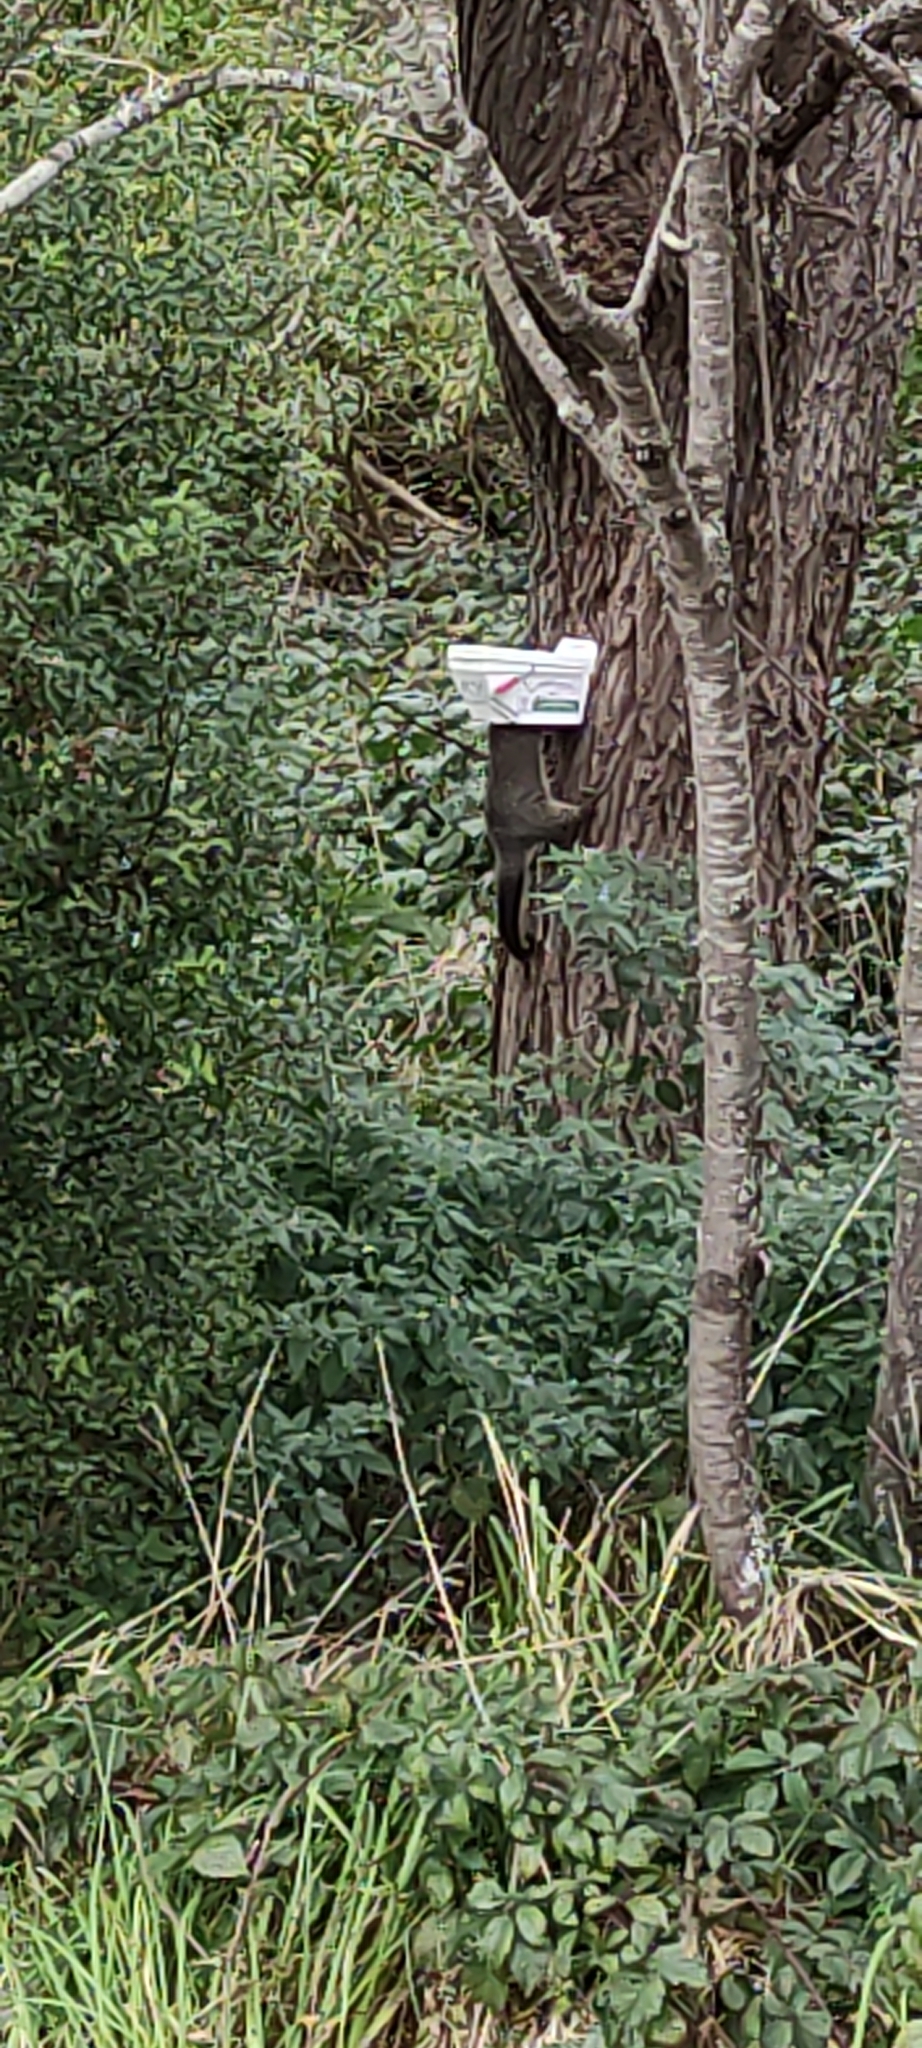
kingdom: Animalia
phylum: Chordata
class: Mammalia
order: Diprotodontia
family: Phalangeridae
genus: Trichosurus
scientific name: Trichosurus vulpecula
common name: Common brushtail
